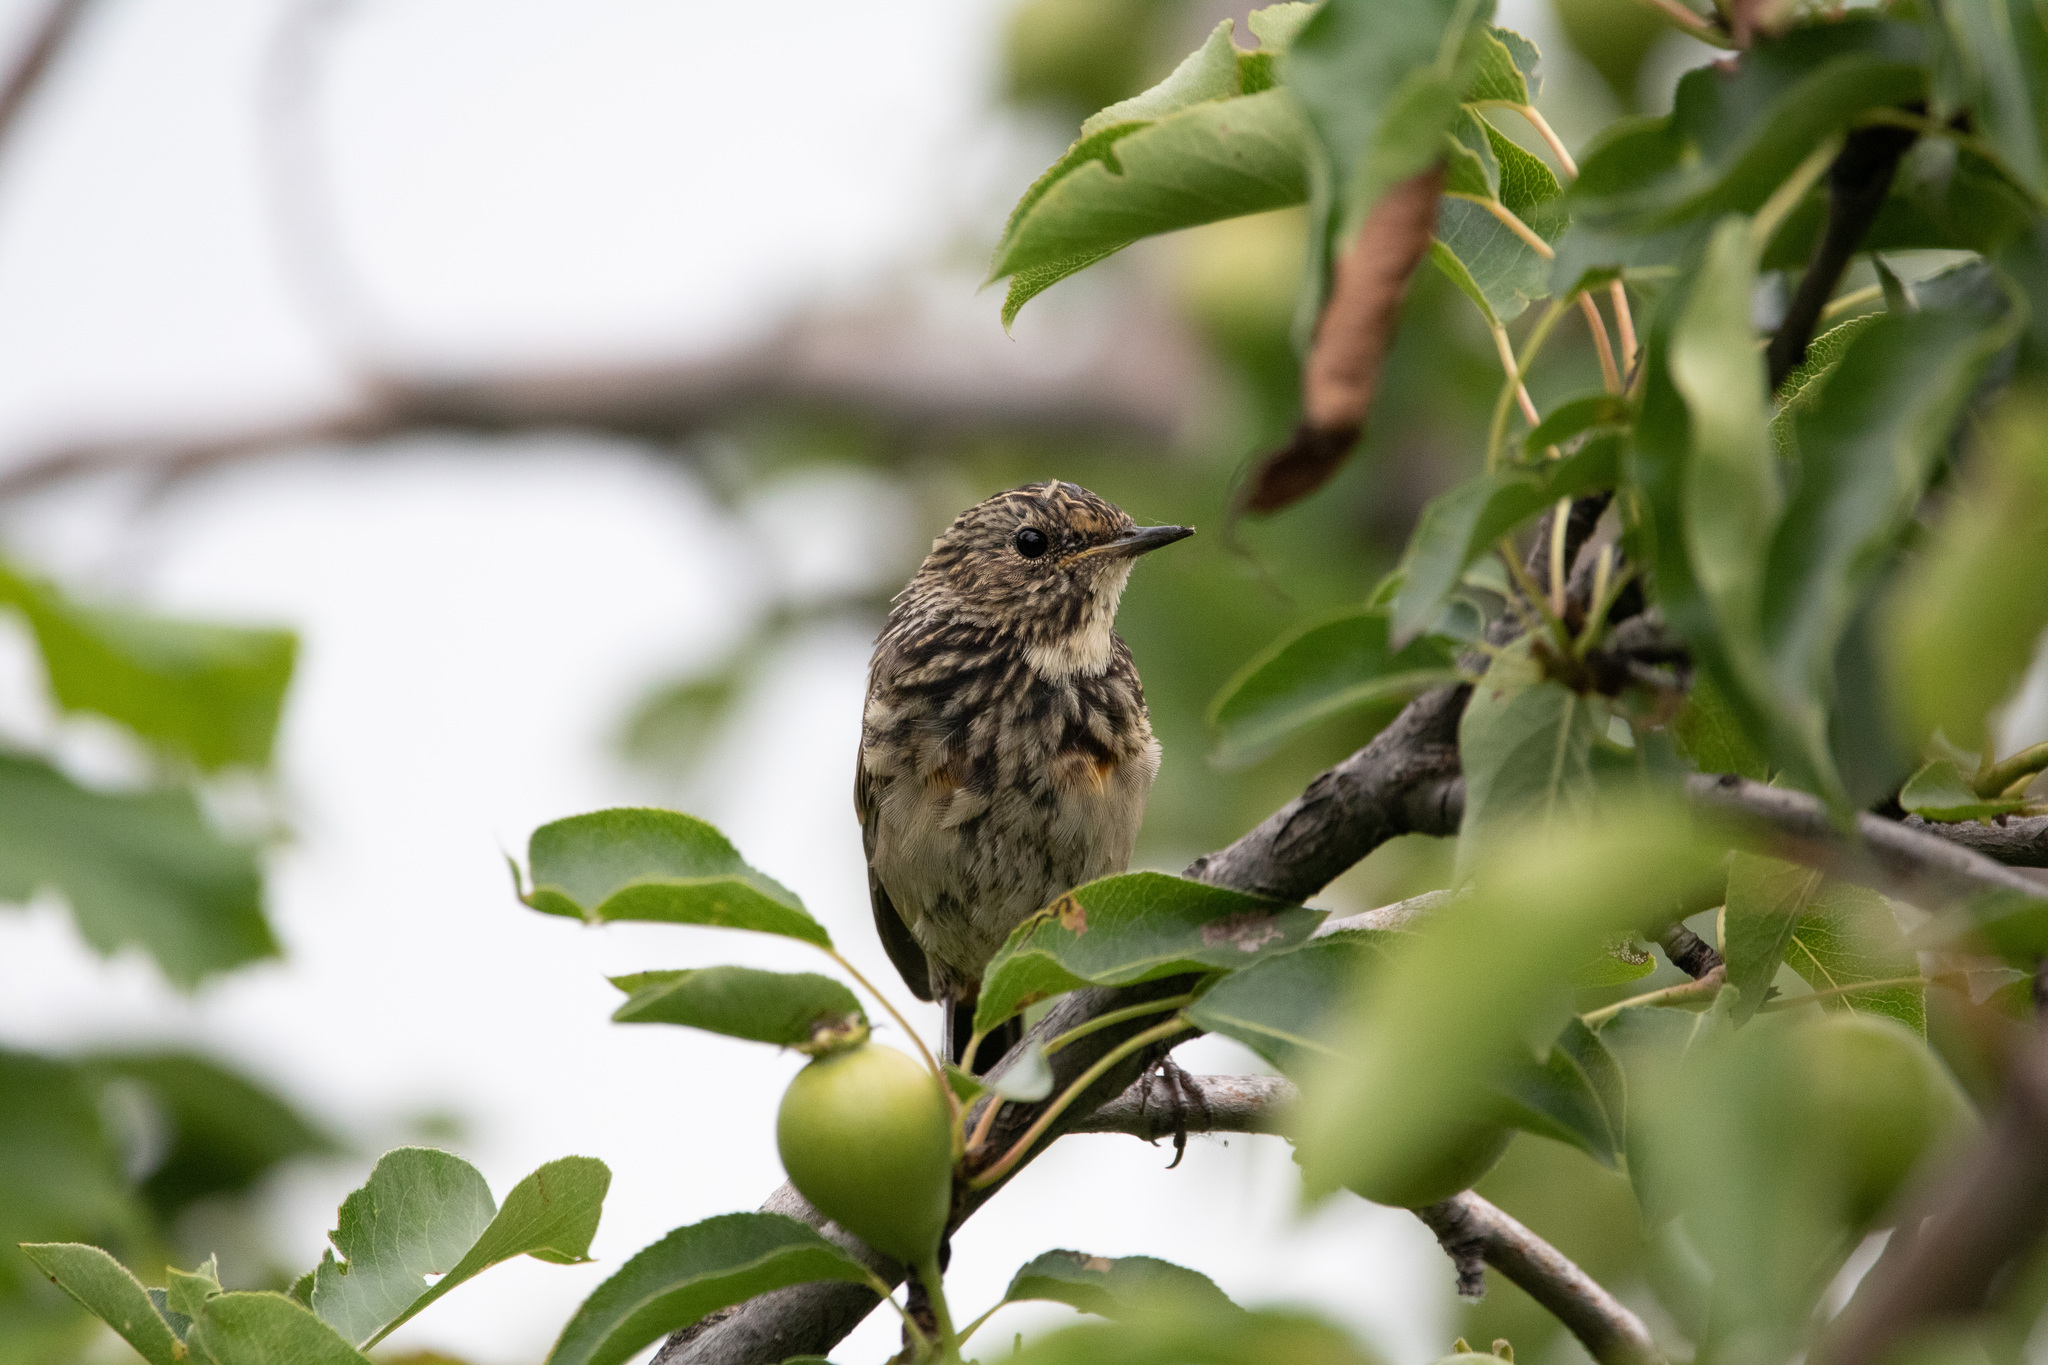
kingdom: Animalia
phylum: Chordata
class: Aves
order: Passeriformes
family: Muscicapidae
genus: Luscinia
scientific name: Luscinia svecica
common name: Bluethroat
